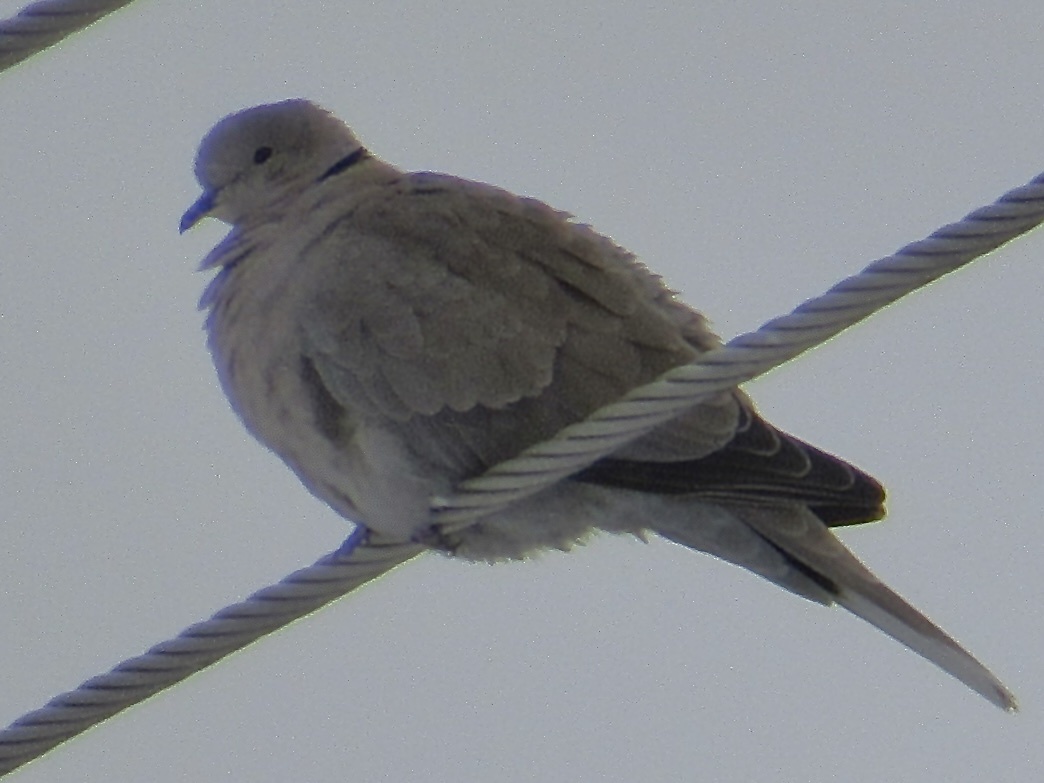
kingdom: Animalia
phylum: Chordata
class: Aves
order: Columbiformes
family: Columbidae
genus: Streptopelia
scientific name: Streptopelia decaocto
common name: Eurasian collared dove
